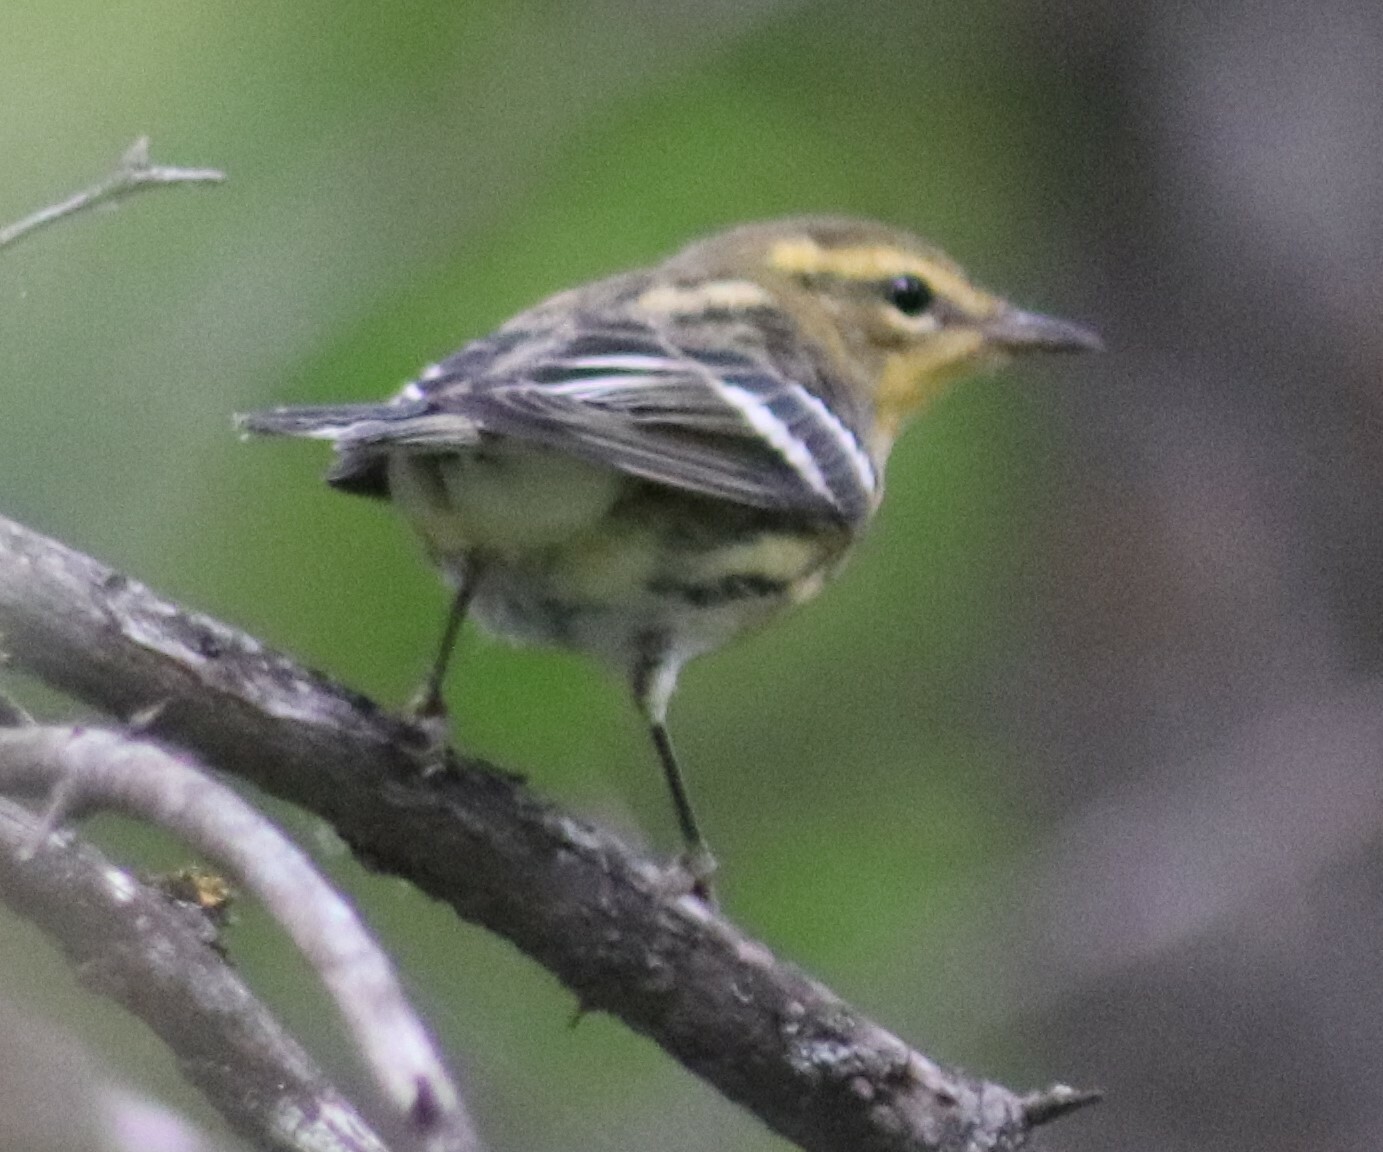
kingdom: Animalia
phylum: Chordata
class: Aves
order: Passeriformes
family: Parulidae
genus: Setophaga
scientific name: Setophaga fusca
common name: Blackburnian warbler
